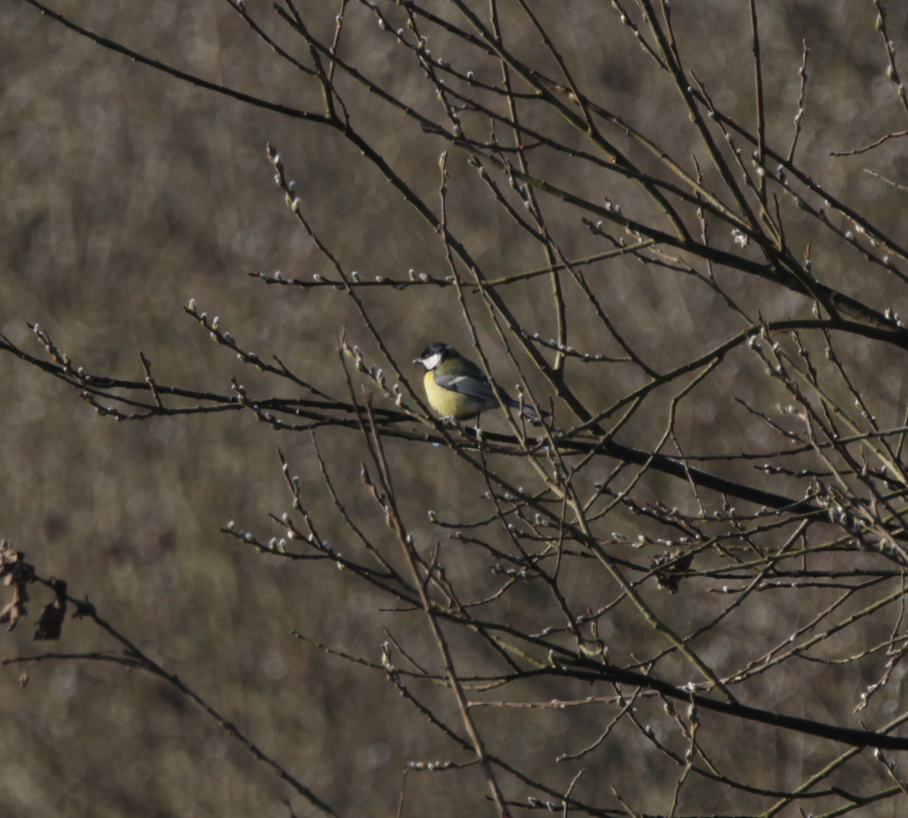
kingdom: Animalia
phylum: Chordata
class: Aves
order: Passeriformes
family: Paridae
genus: Parus
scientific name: Parus major
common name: Great tit
